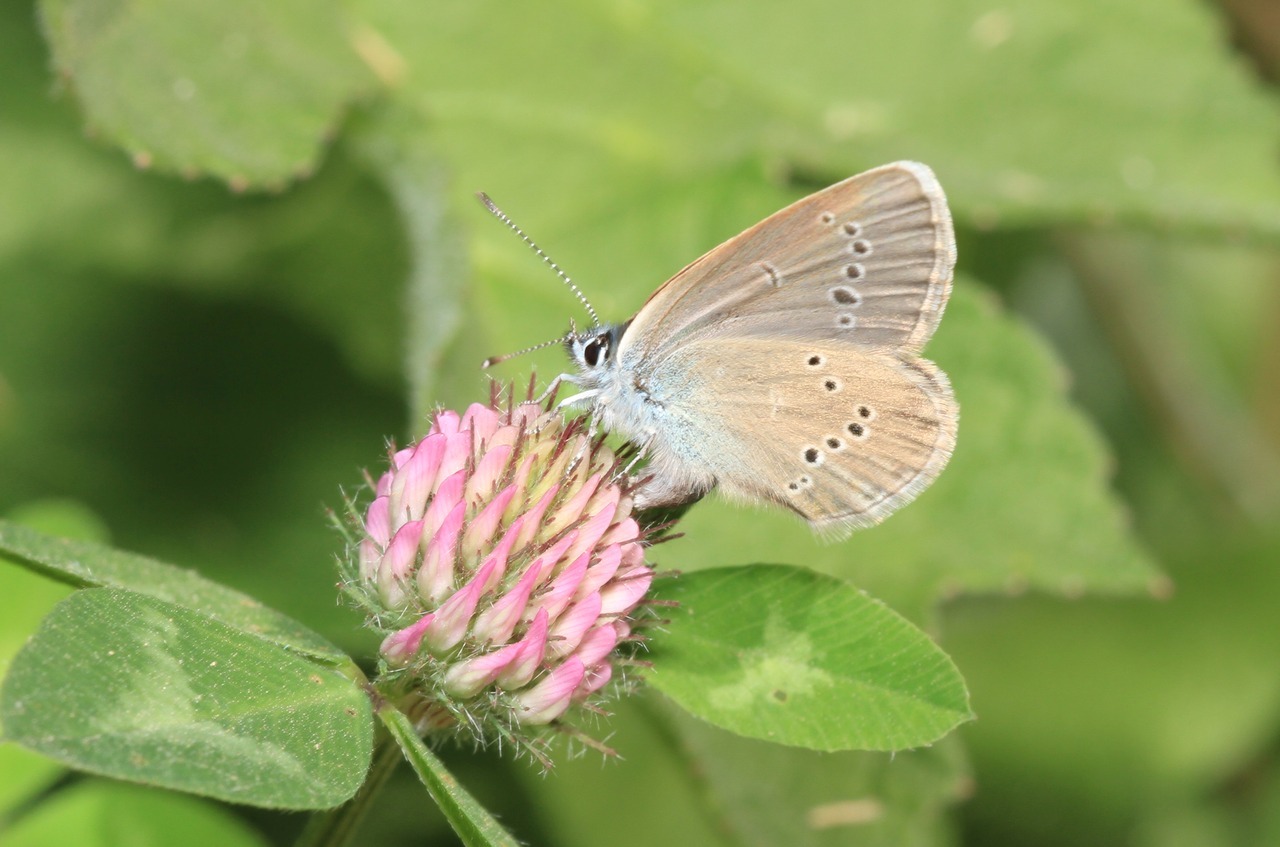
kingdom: Animalia
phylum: Arthropoda
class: Insecta
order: Lepidoptera
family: Lycaenidae
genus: Cyaniris
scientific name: Cyaniris semiargus
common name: Mazarine blue
